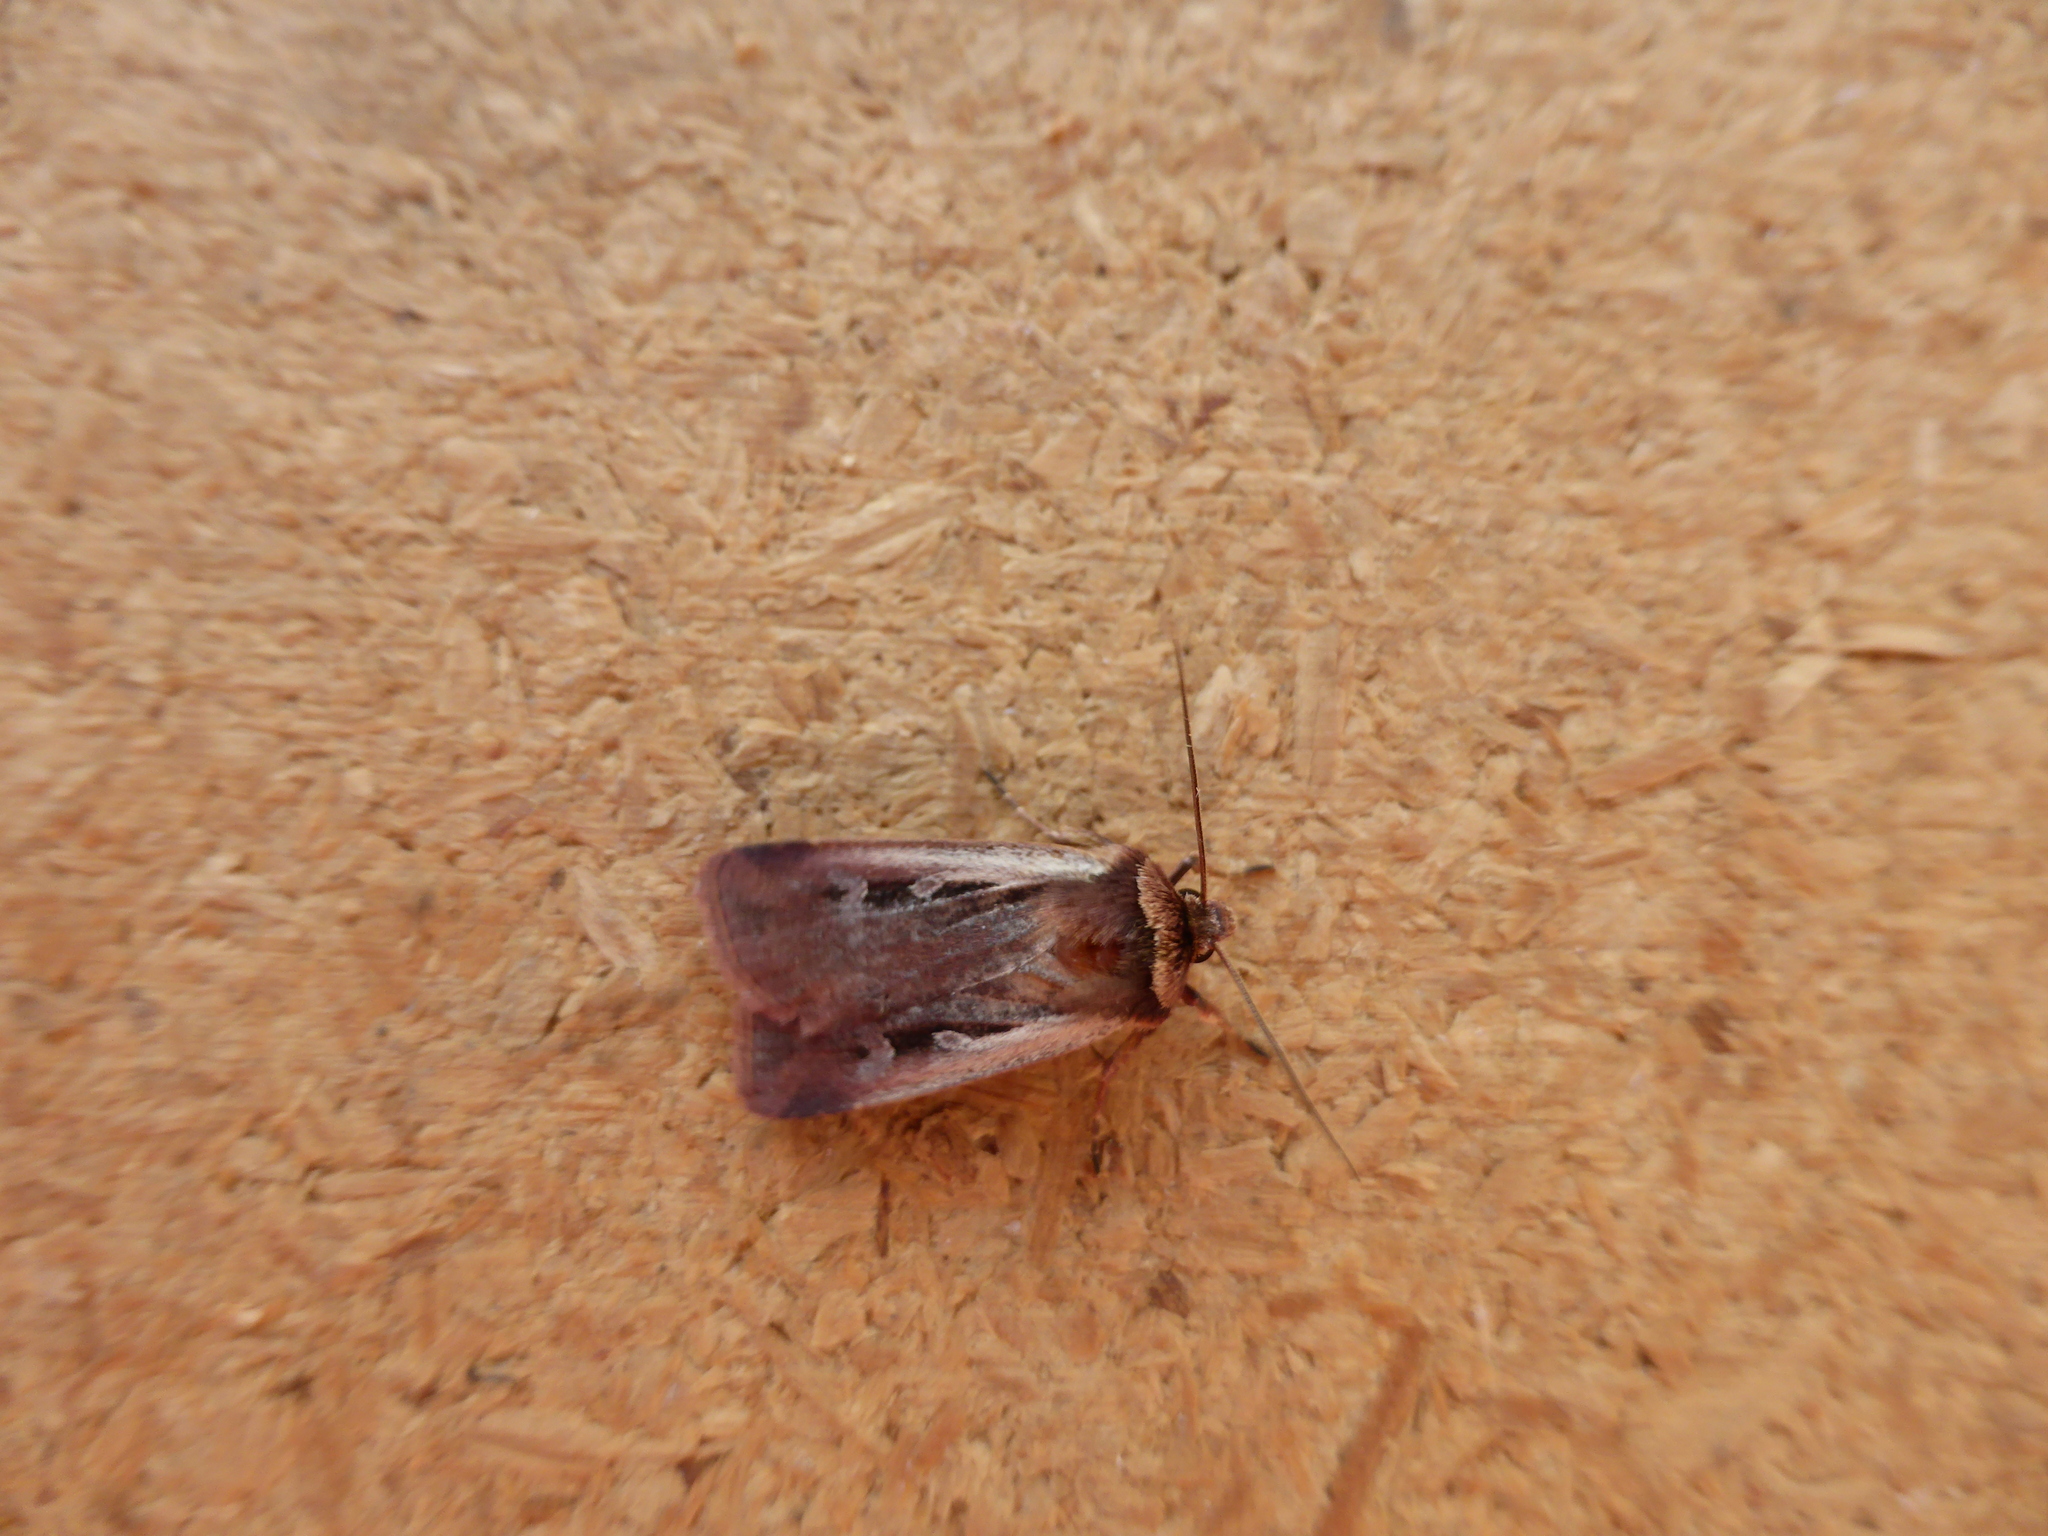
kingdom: Animalia
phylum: Arthropoda
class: Insecta
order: Lepidoptera
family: Noctuidae
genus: Ochropleura
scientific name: Ochropleura plecta
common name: Flame shoulder
